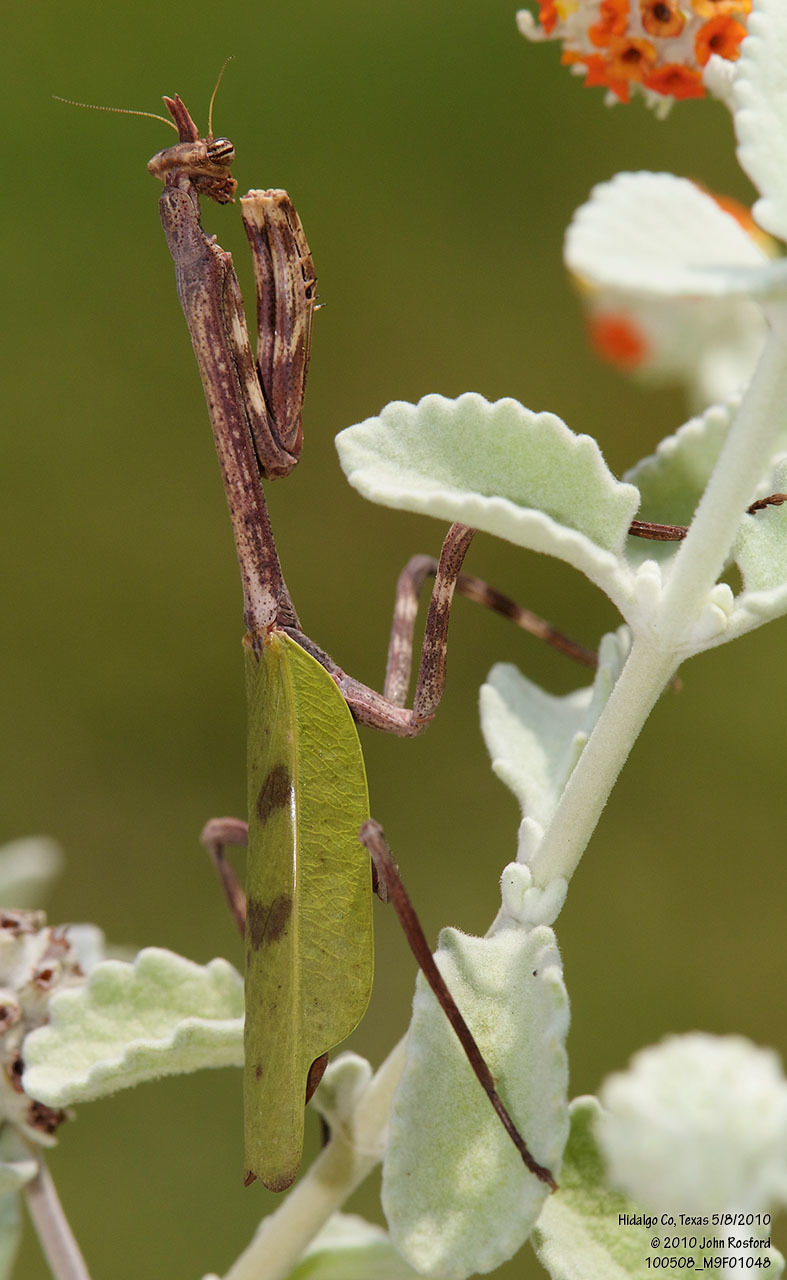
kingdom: Animalia
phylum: Arthropoda
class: Insecta
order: Mantodea
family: Mantidae
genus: Pseudovates
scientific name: Pseudovates chlorophaea
